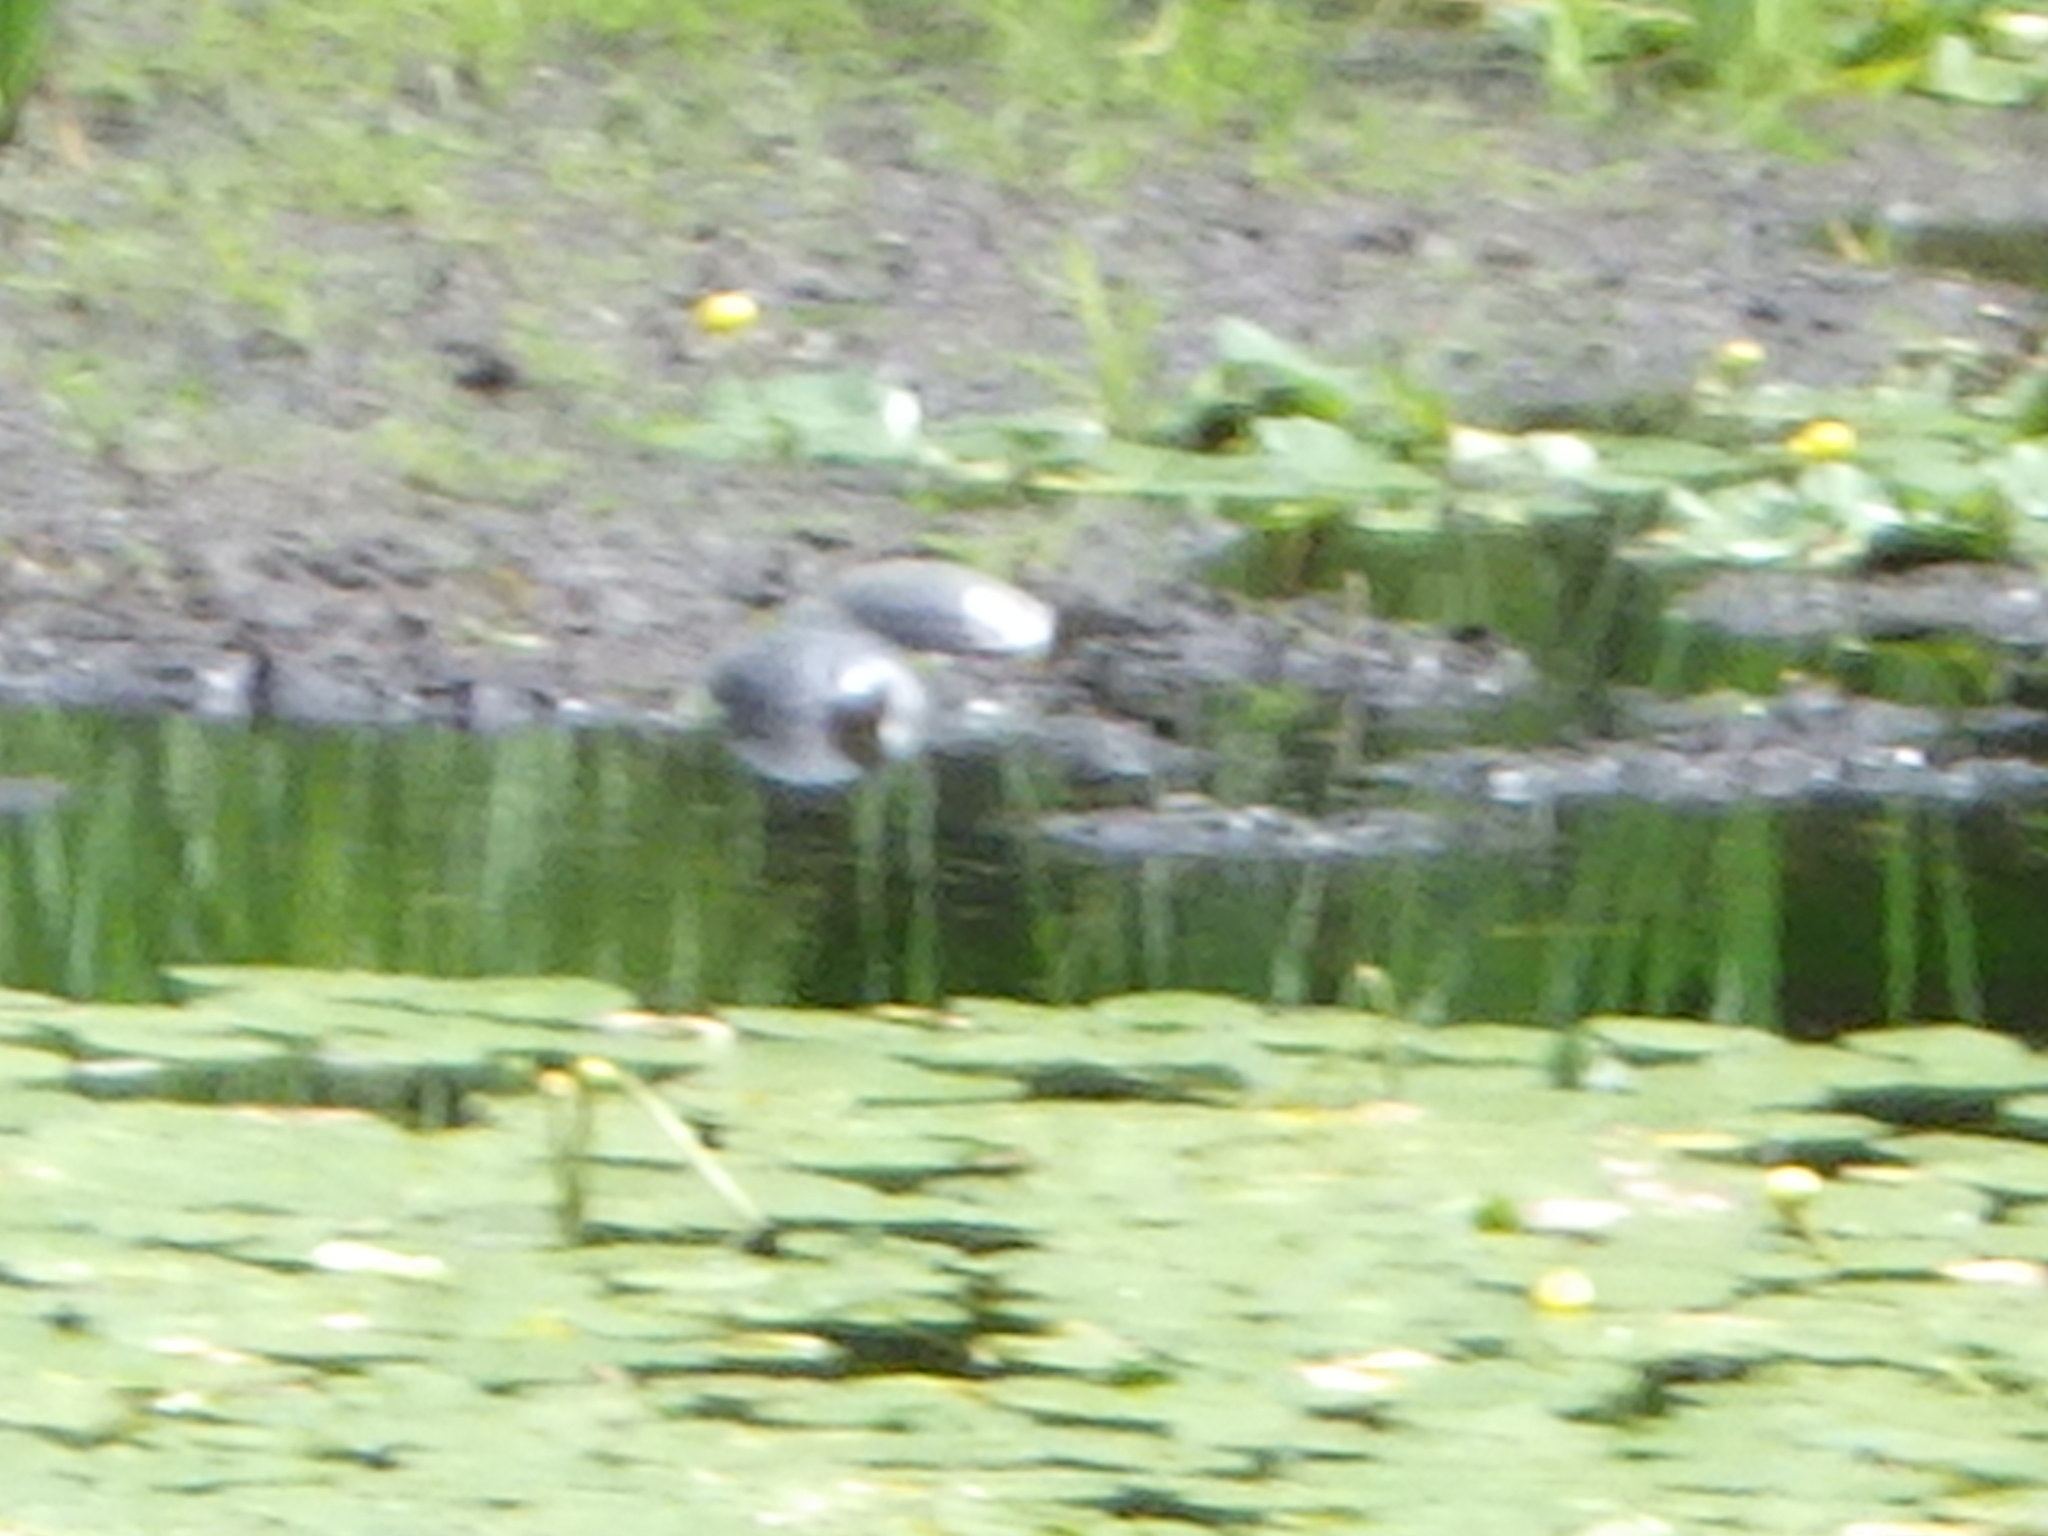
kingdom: Animalia
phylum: Chordata
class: Testudines
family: Emydidae
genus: Chrysemys
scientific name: Chrysemys picta
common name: Painted turtle
